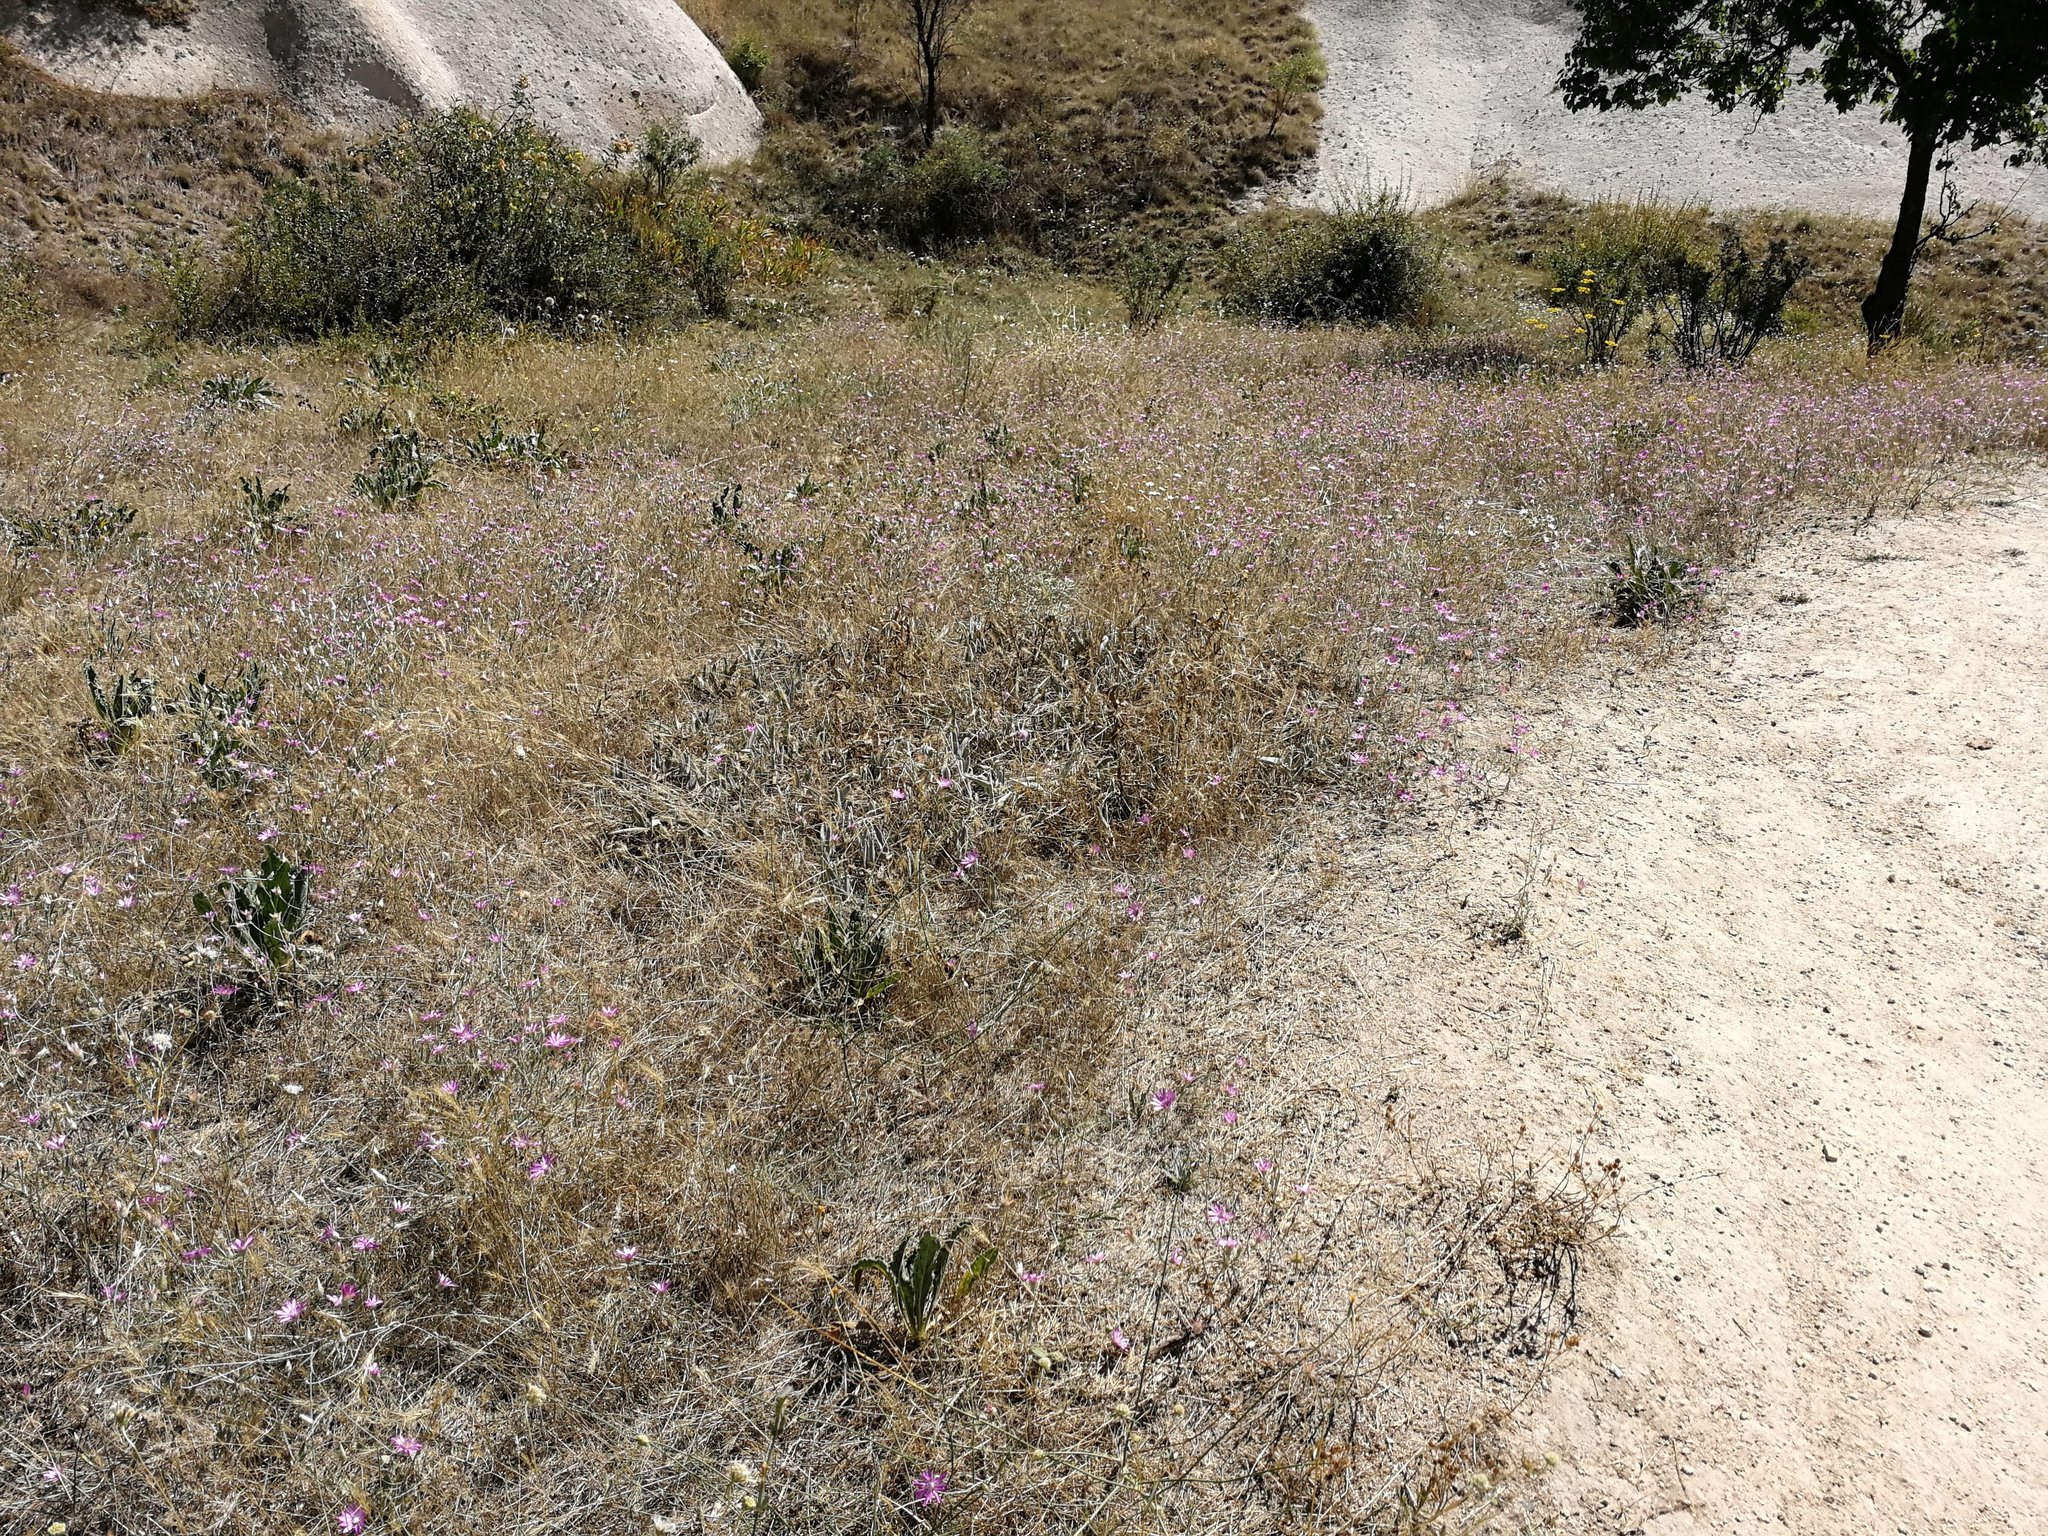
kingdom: Plantae
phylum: Tracheophyta
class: Magnoliopsida
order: Asterales
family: Asteraceae
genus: Xeranthemum
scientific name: Xeranthemum annuum
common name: Immortelle
